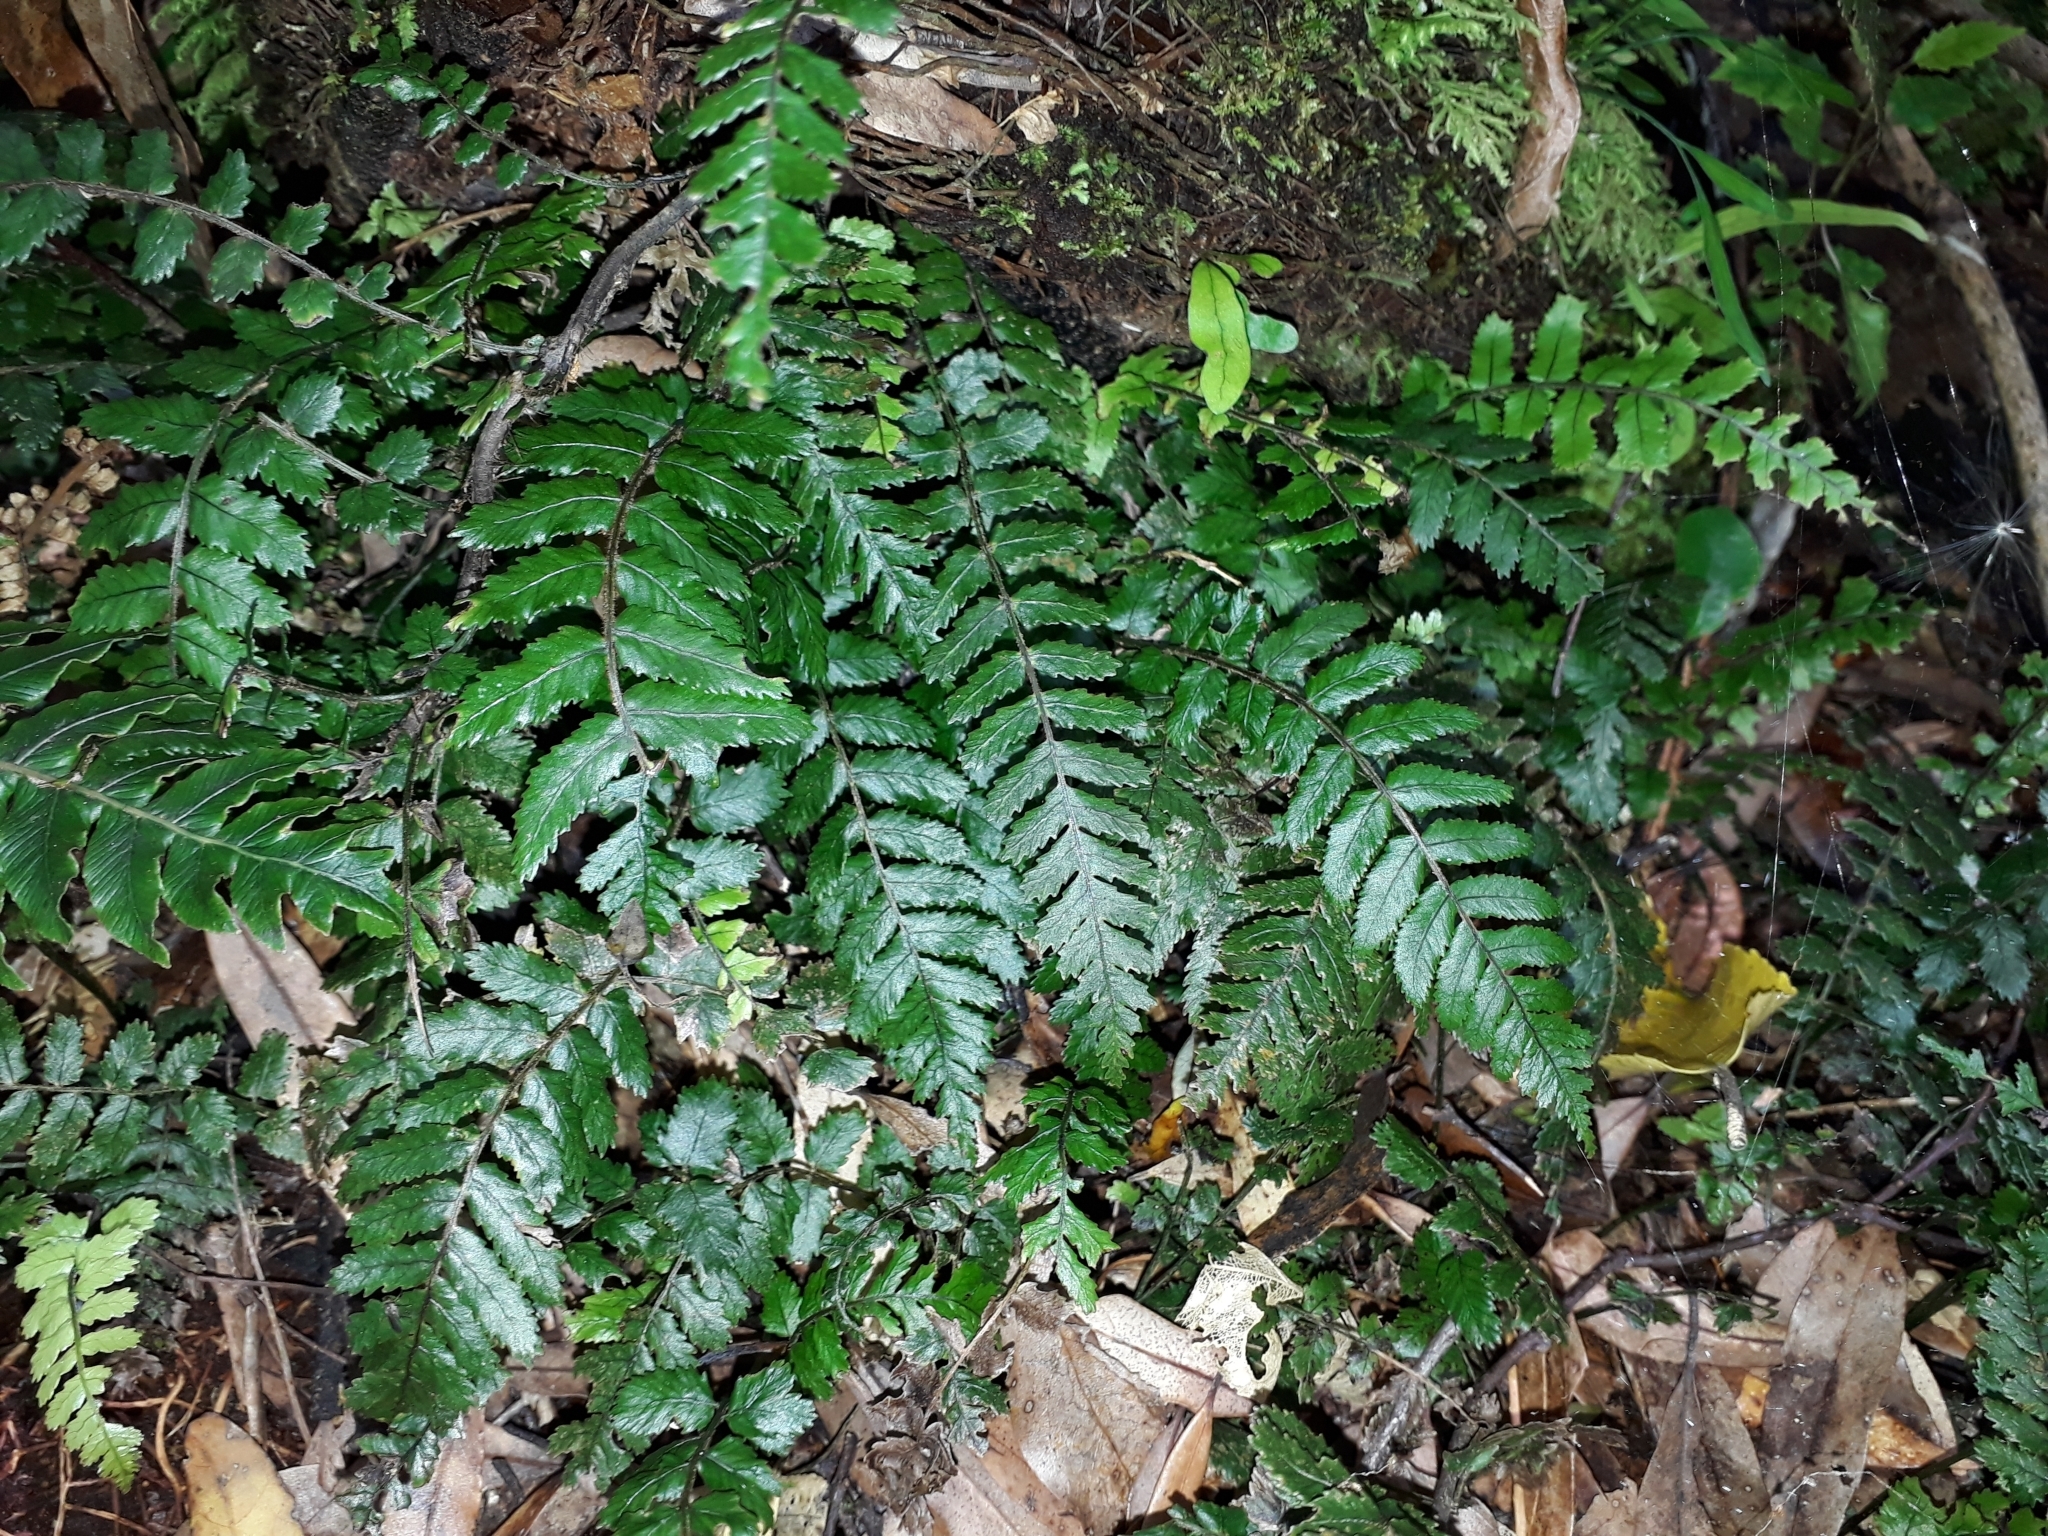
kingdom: Plantae
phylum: Tracheophyta
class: Polypodiopsida
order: Polypodiales
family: Blechnaceae
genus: Icarus
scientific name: Icarus filiformis
